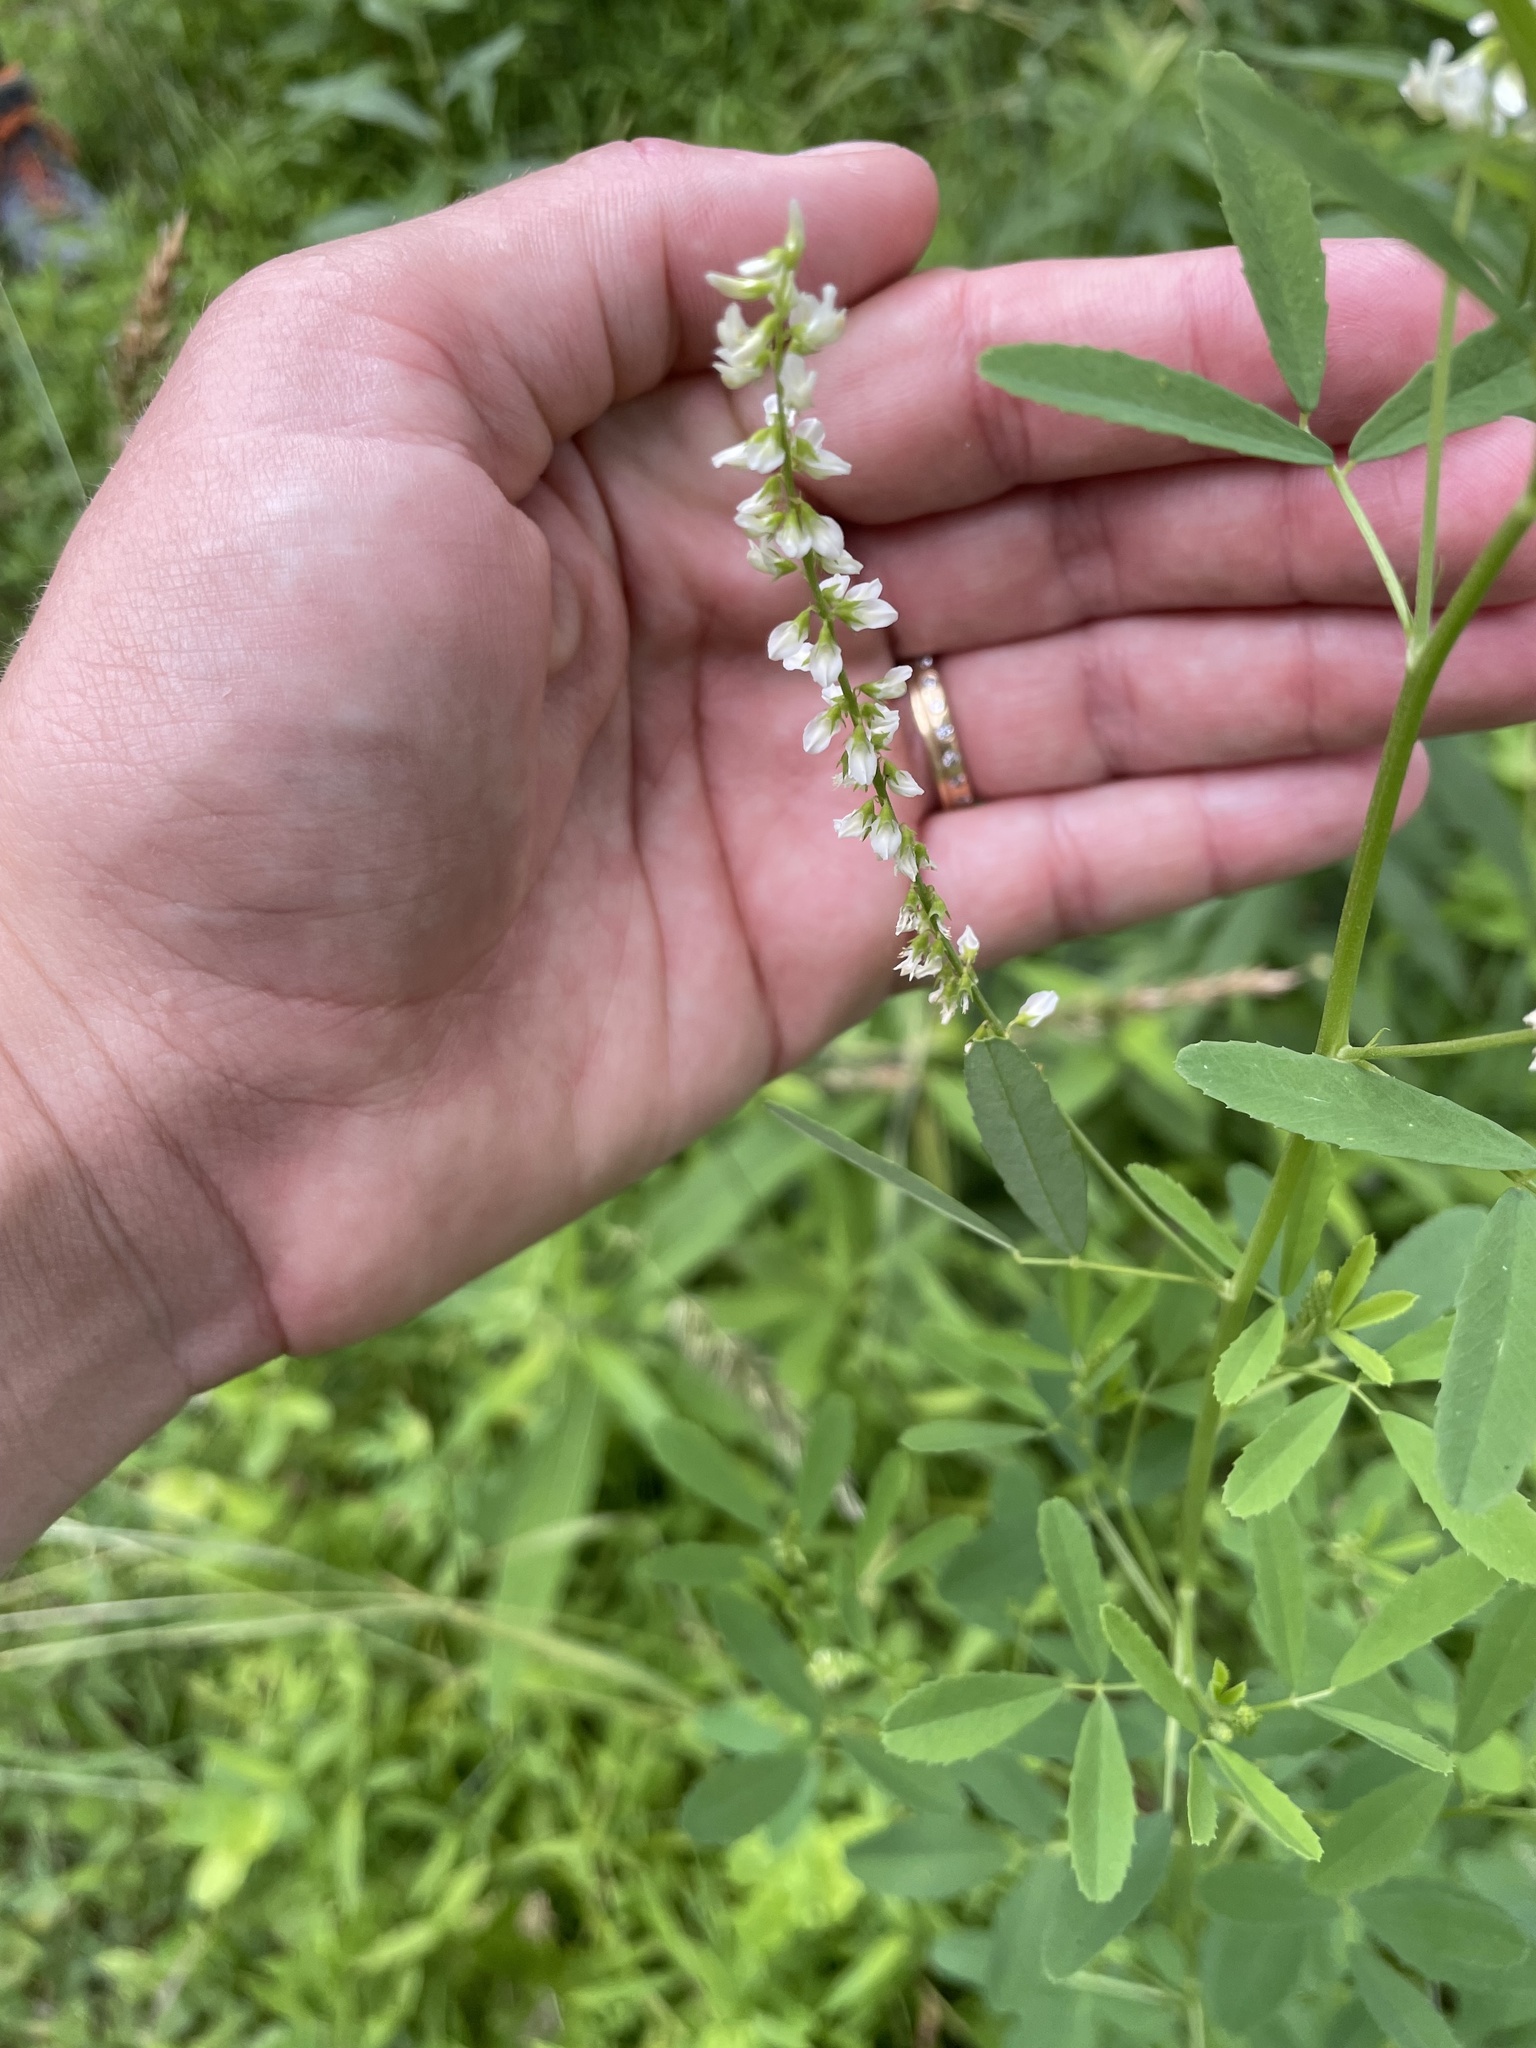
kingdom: Plantae
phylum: Tracheophyta
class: Magnoliopsida
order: Fabales
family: Fabaceae
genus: Melilotus
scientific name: Melilotus albus
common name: White melilot
